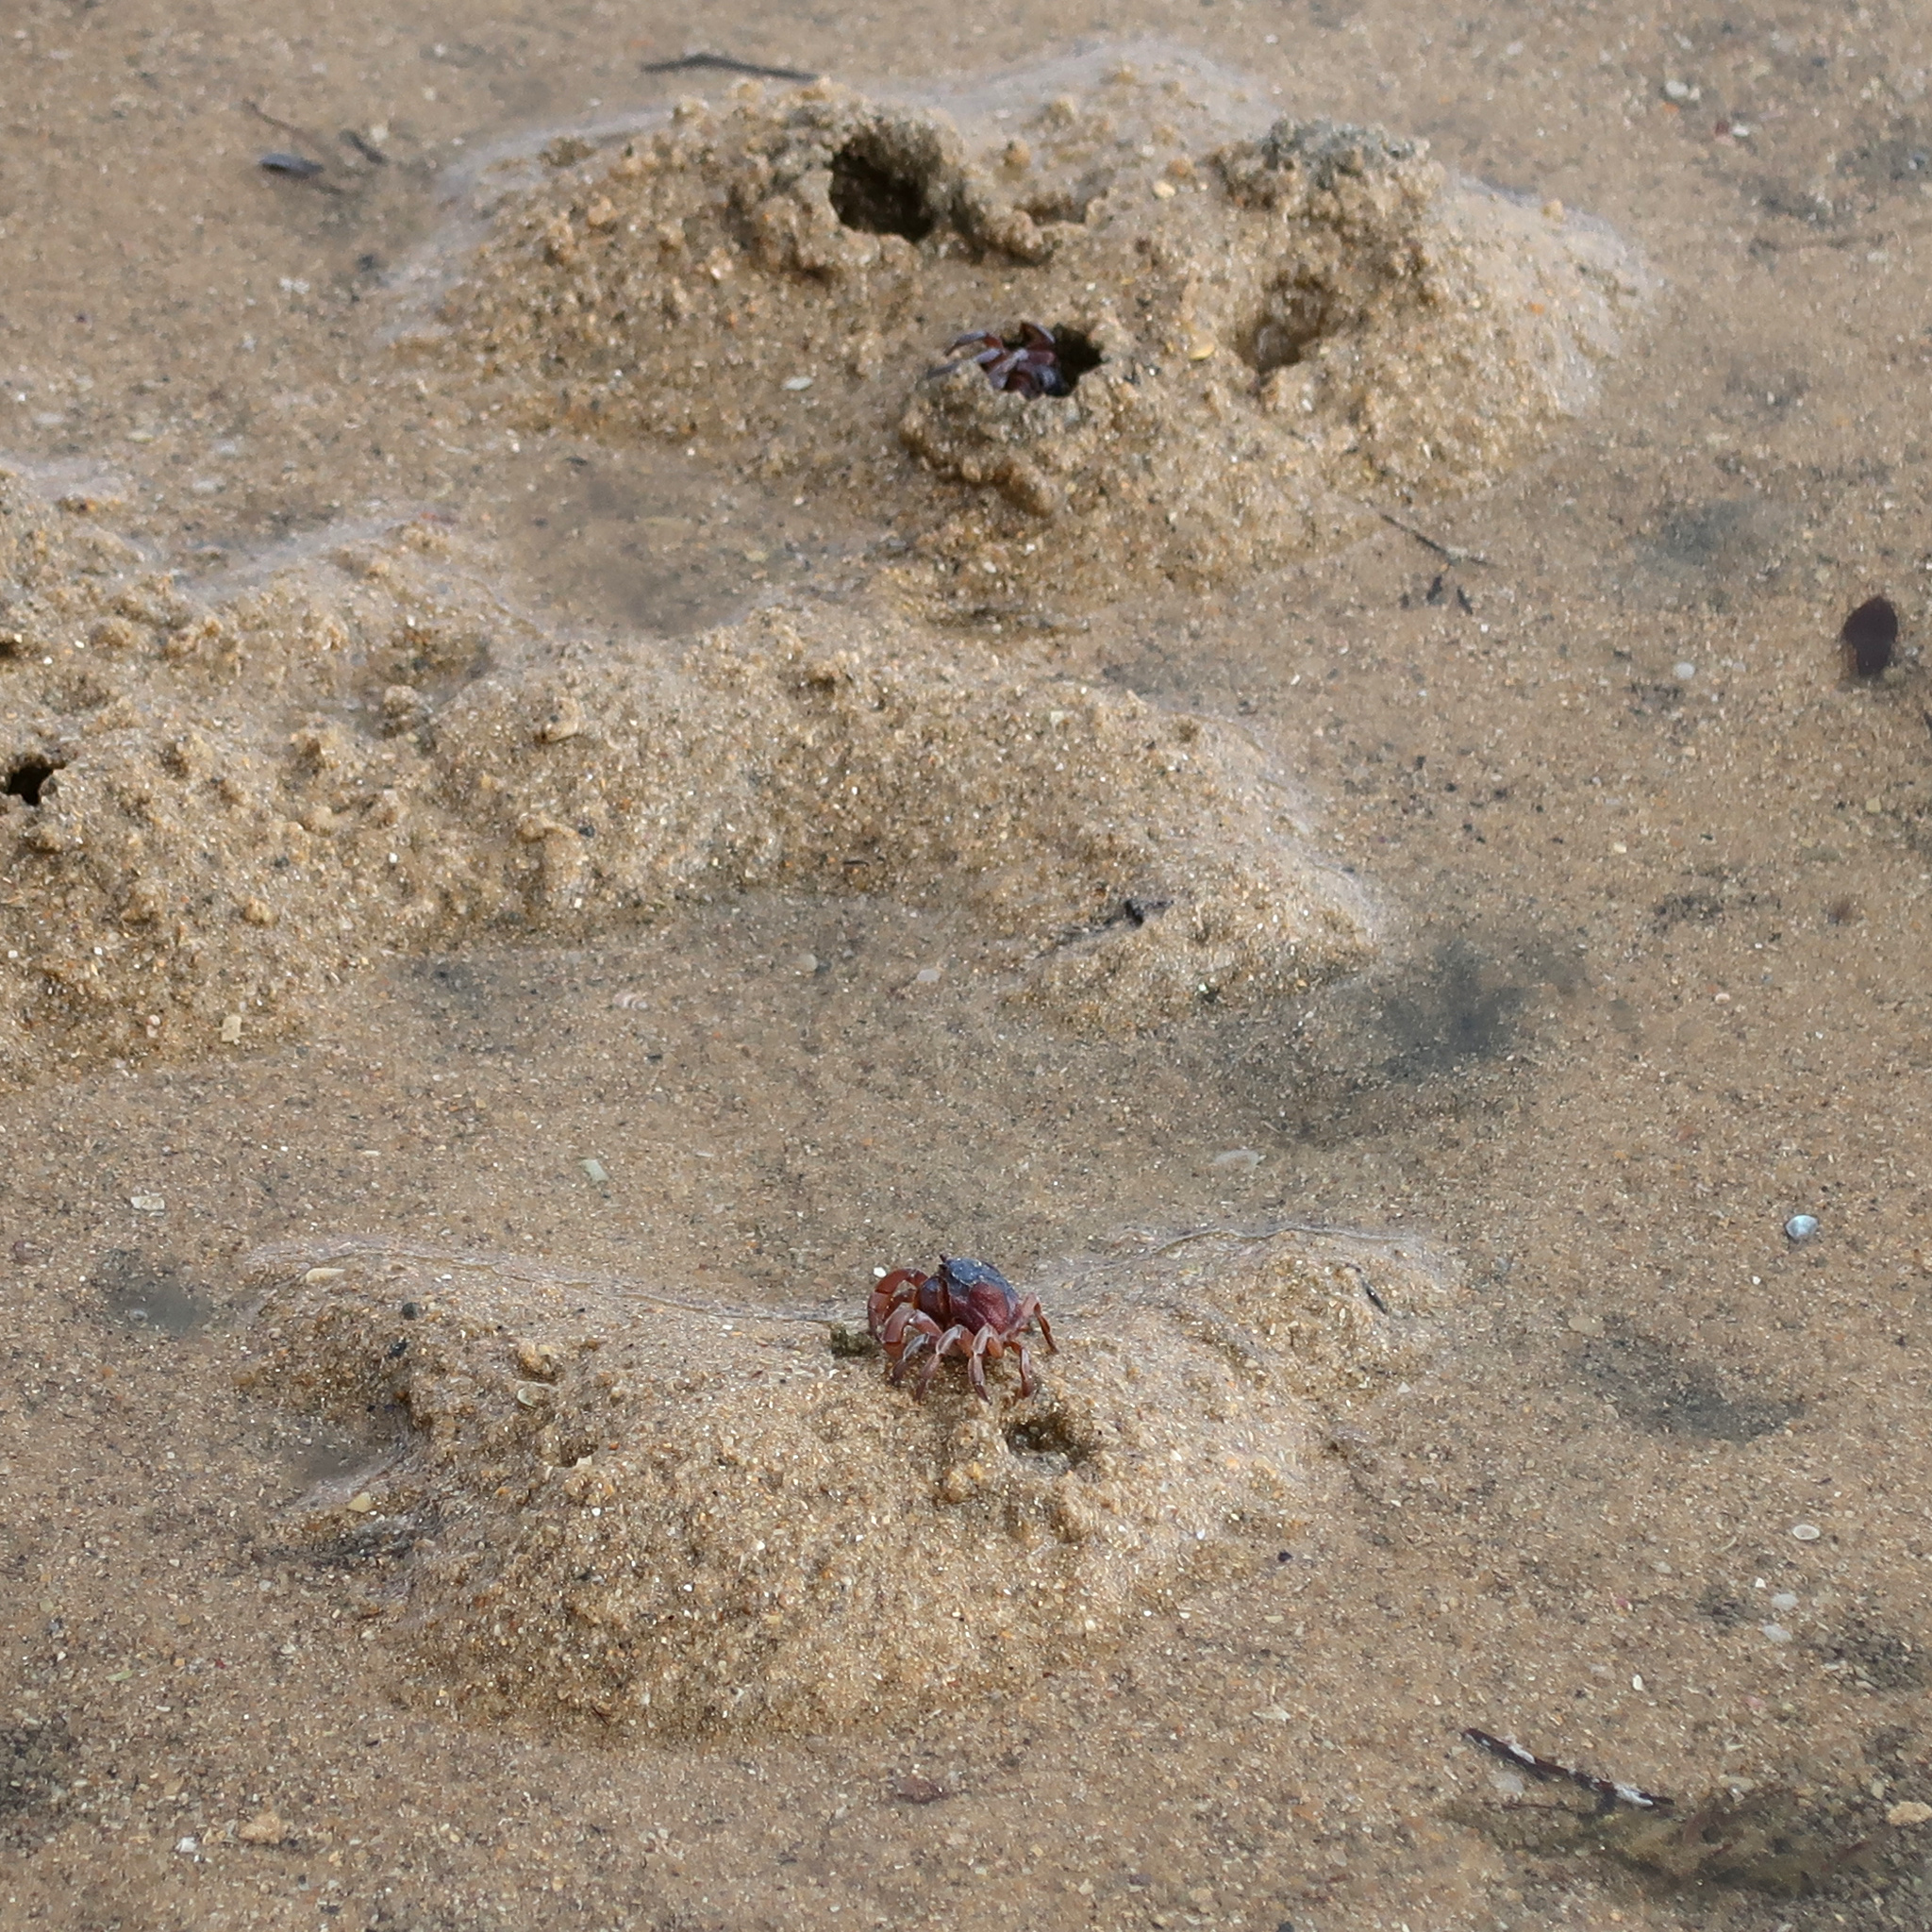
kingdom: Animalia
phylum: Arthropoda
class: Malacostraca
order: Decapoda
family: Mictyridae
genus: Mictyris
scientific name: Mictyris platycheles
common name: Dark blue soldier crab
